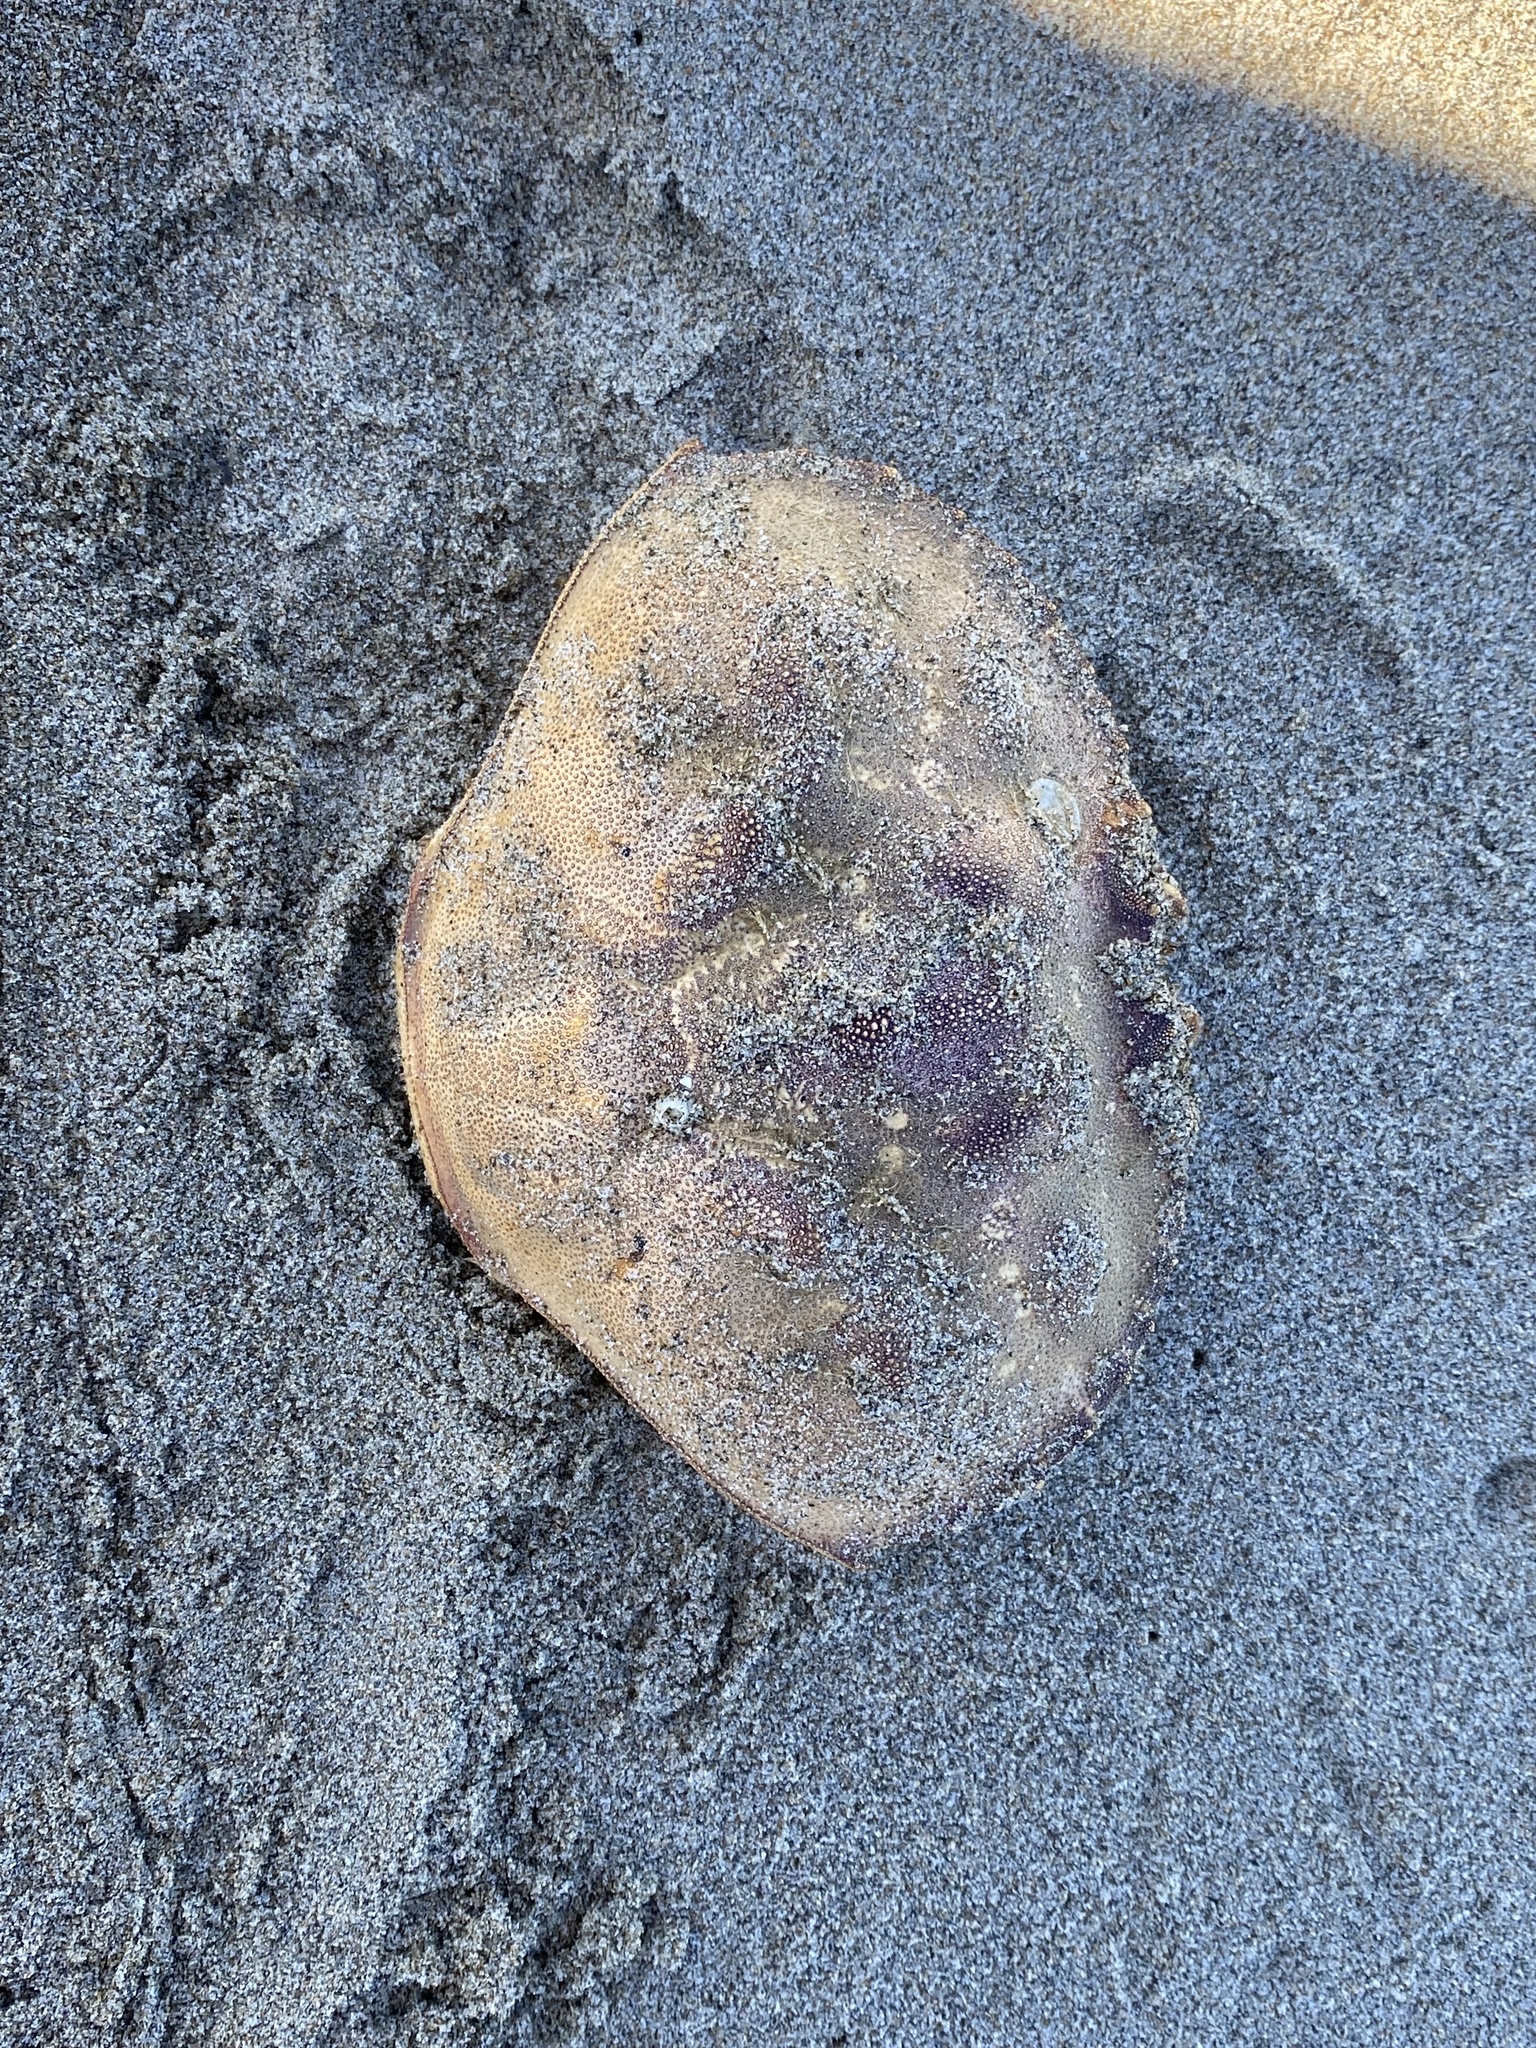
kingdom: Animalia
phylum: Arthropoda
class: Malacostraca
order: Decapoda
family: Cancridae
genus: Metacarcinus
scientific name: Metacarcinus magister
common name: Californian crab
